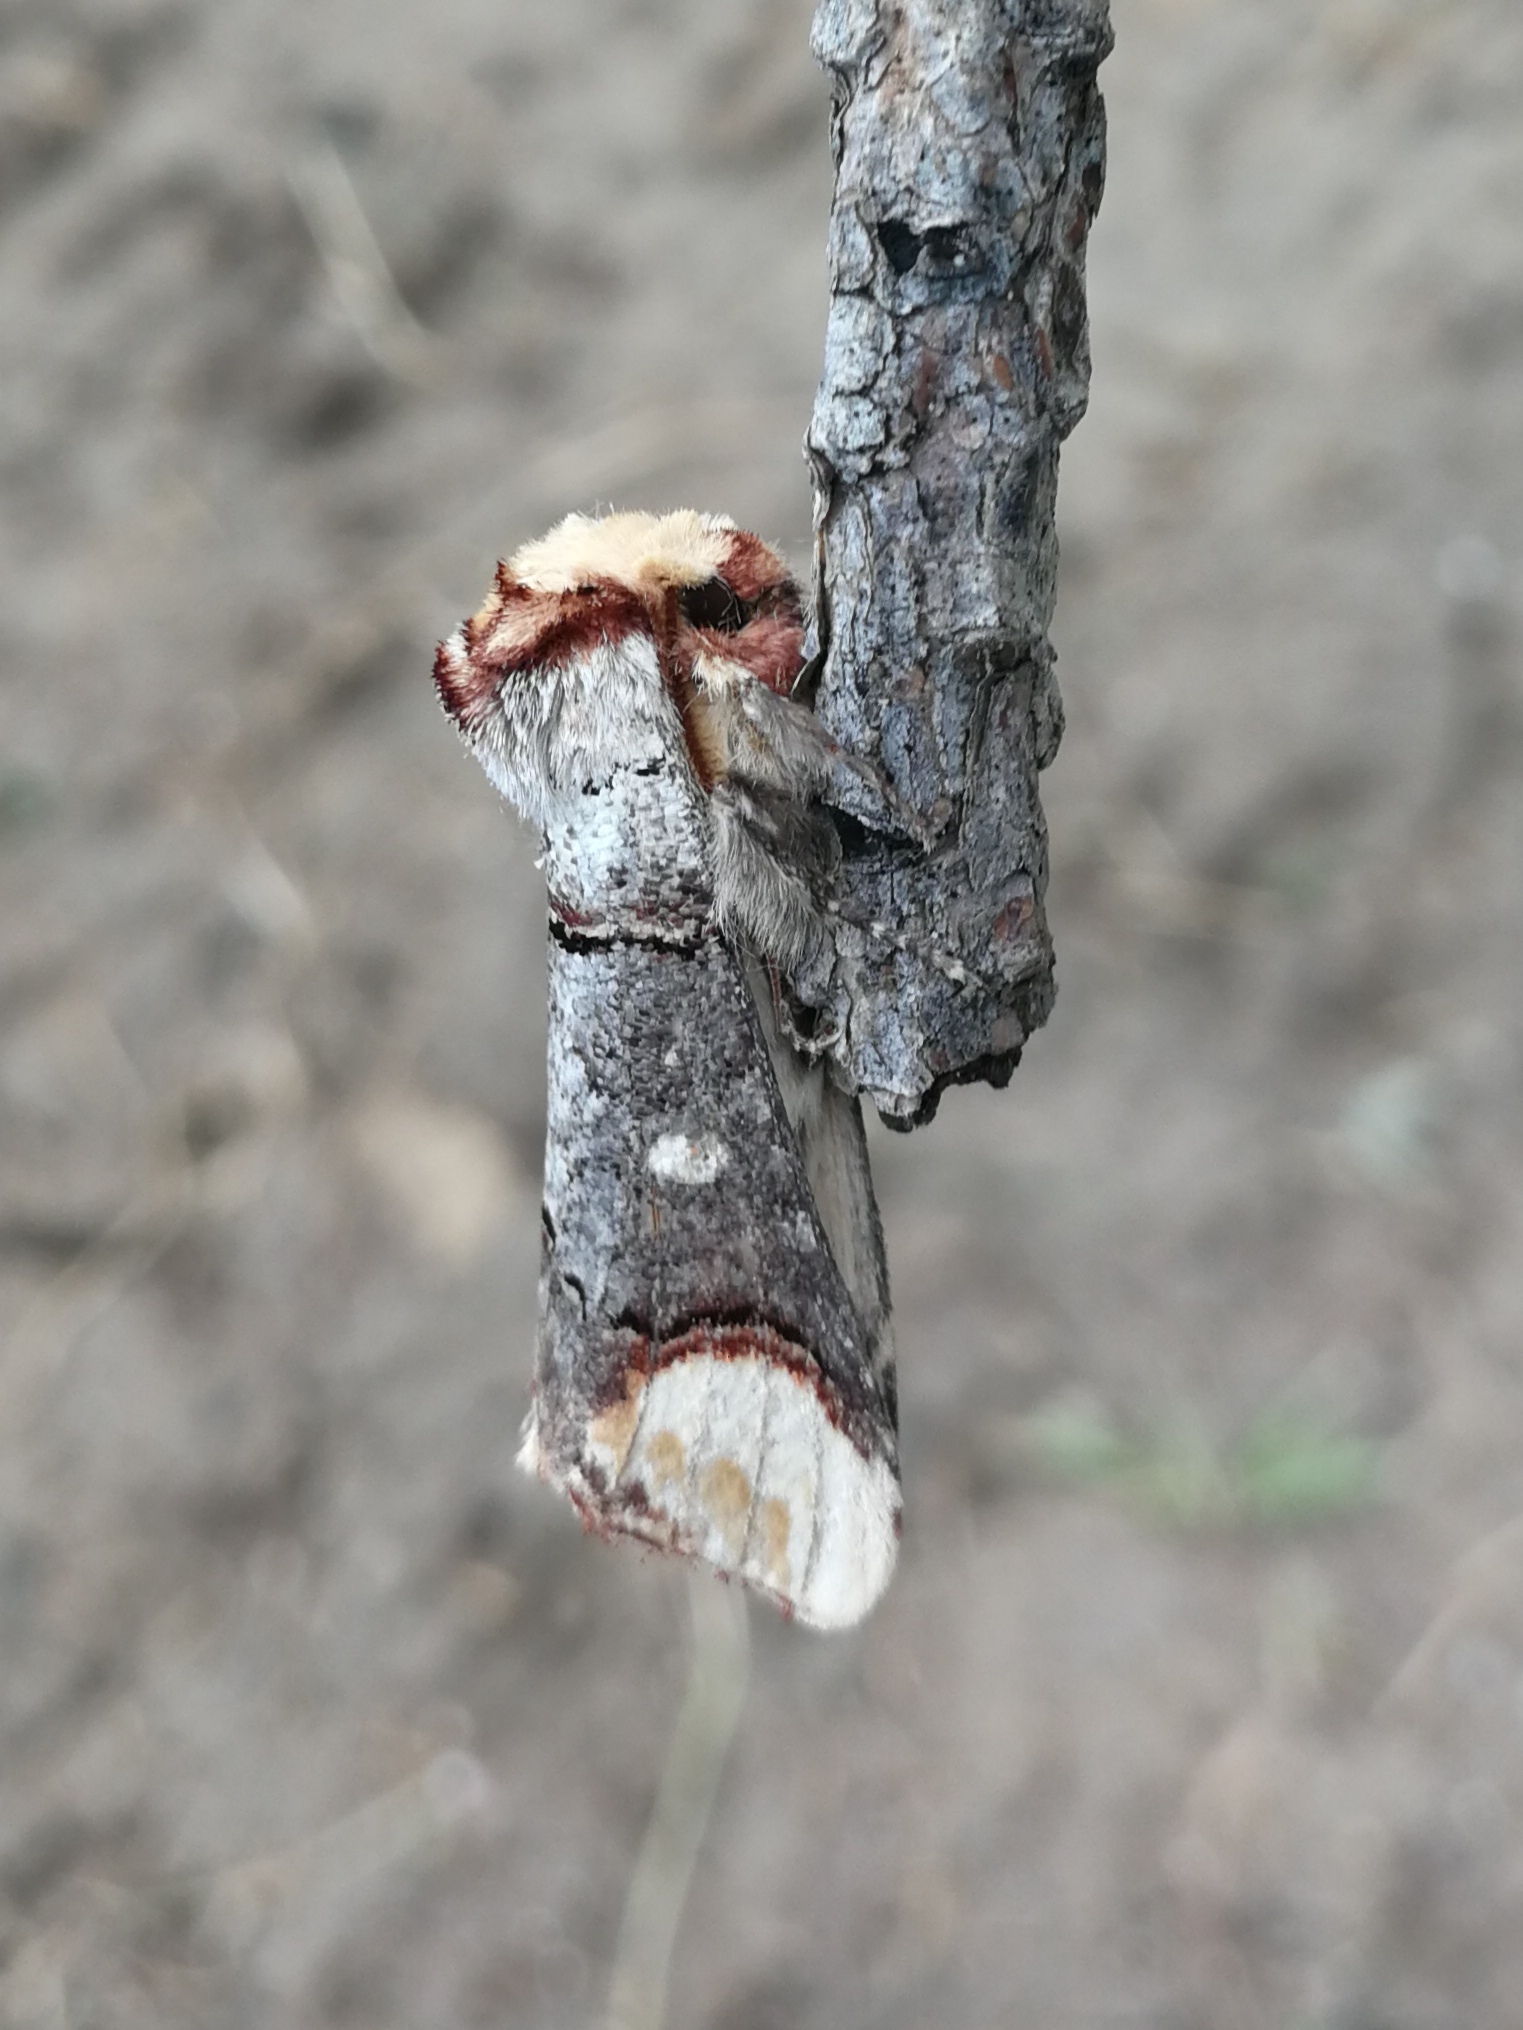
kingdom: Animalia
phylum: Arthropoda
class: Insecta
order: Lepidoptera
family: Notodontidae
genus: Phalera
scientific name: Phalera bucephala
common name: Buff-tip
